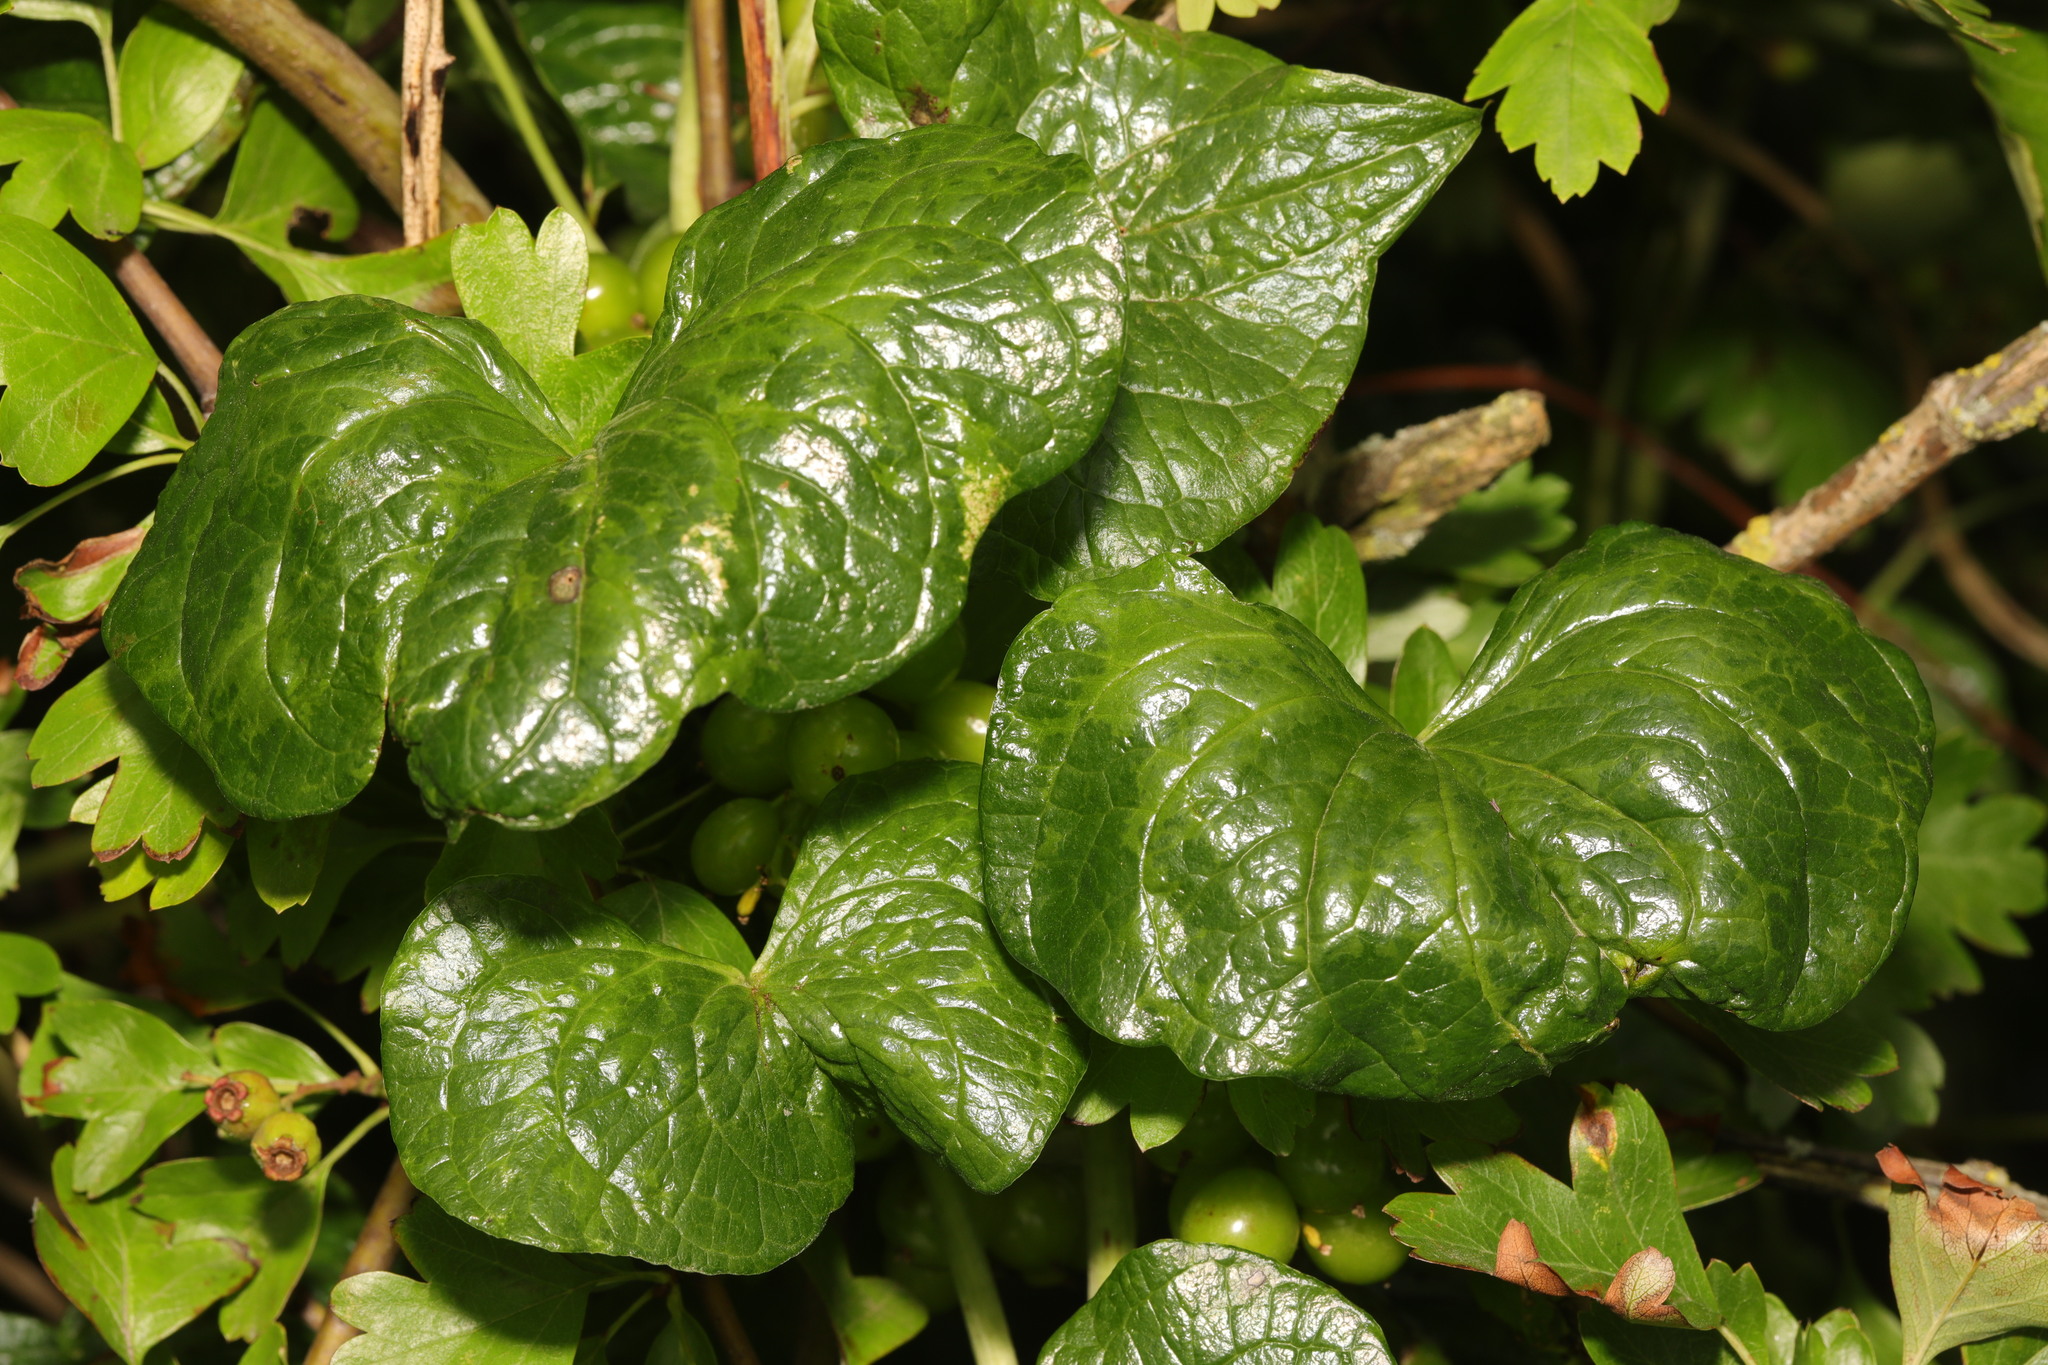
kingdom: Plantae
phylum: Tracheophyta
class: Liliopsida
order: Dioscoreales
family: Dioscoreaceae
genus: Dioscorea
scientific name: Dioscorea communis
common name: Black-bindweed
